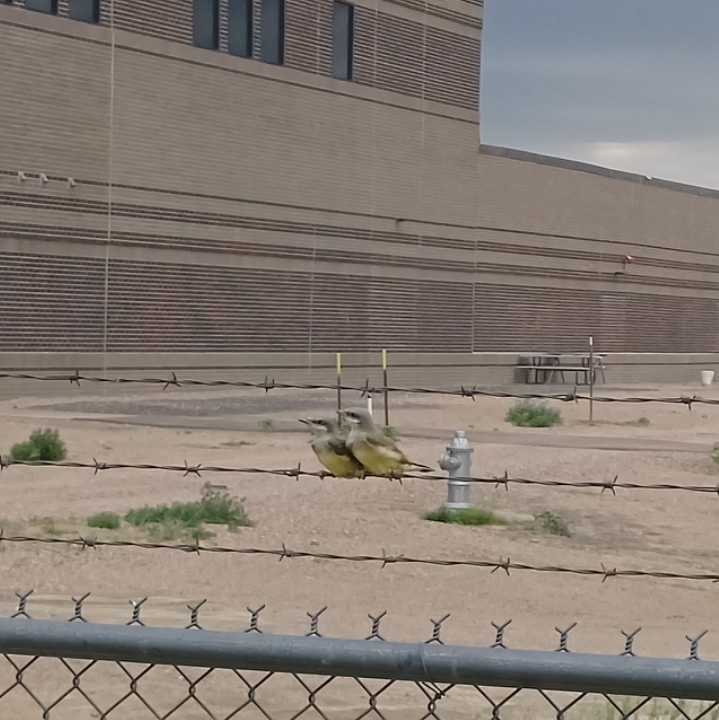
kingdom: Animalia
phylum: Chordata
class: Aves
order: Passeriformes
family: Tyrannidae
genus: Tyrannus
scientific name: Tyrannus verticalis
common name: Western kingbird
